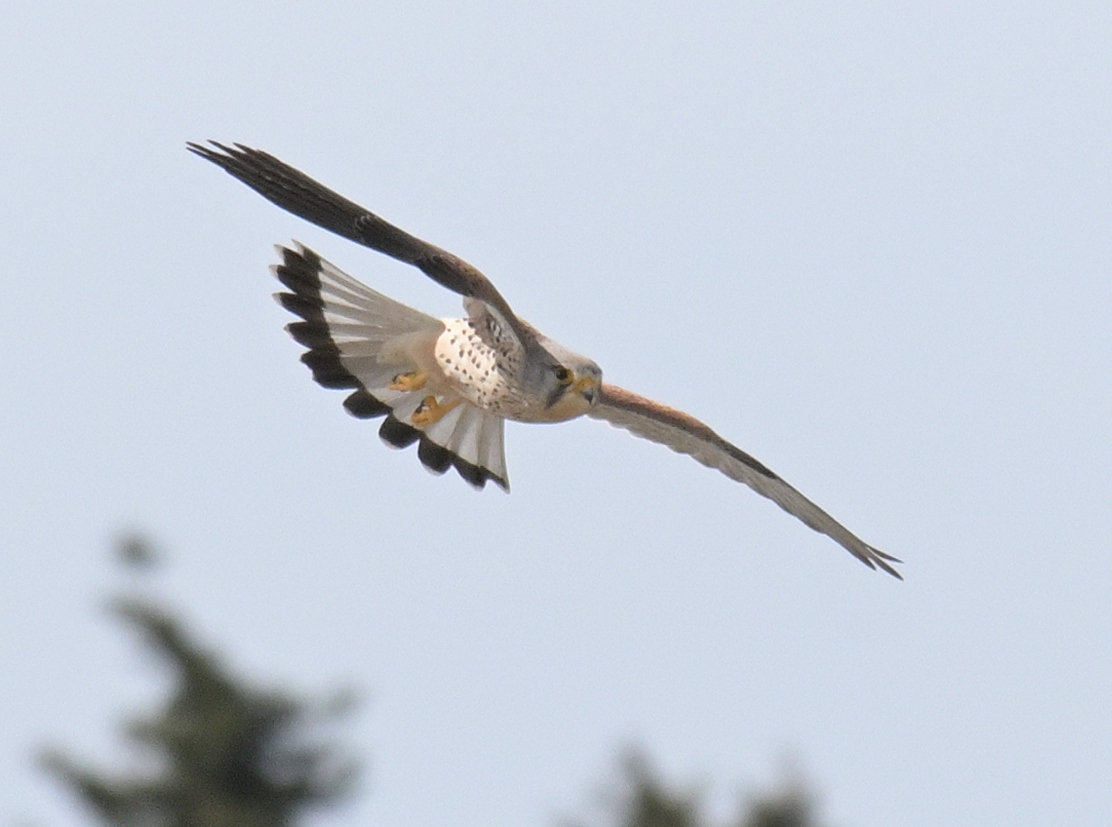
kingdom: Animalia
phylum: Chordata
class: Aves
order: Falconiformes
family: Falconidae
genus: Falco
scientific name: Falco tinnunculus
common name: Common kestrel
